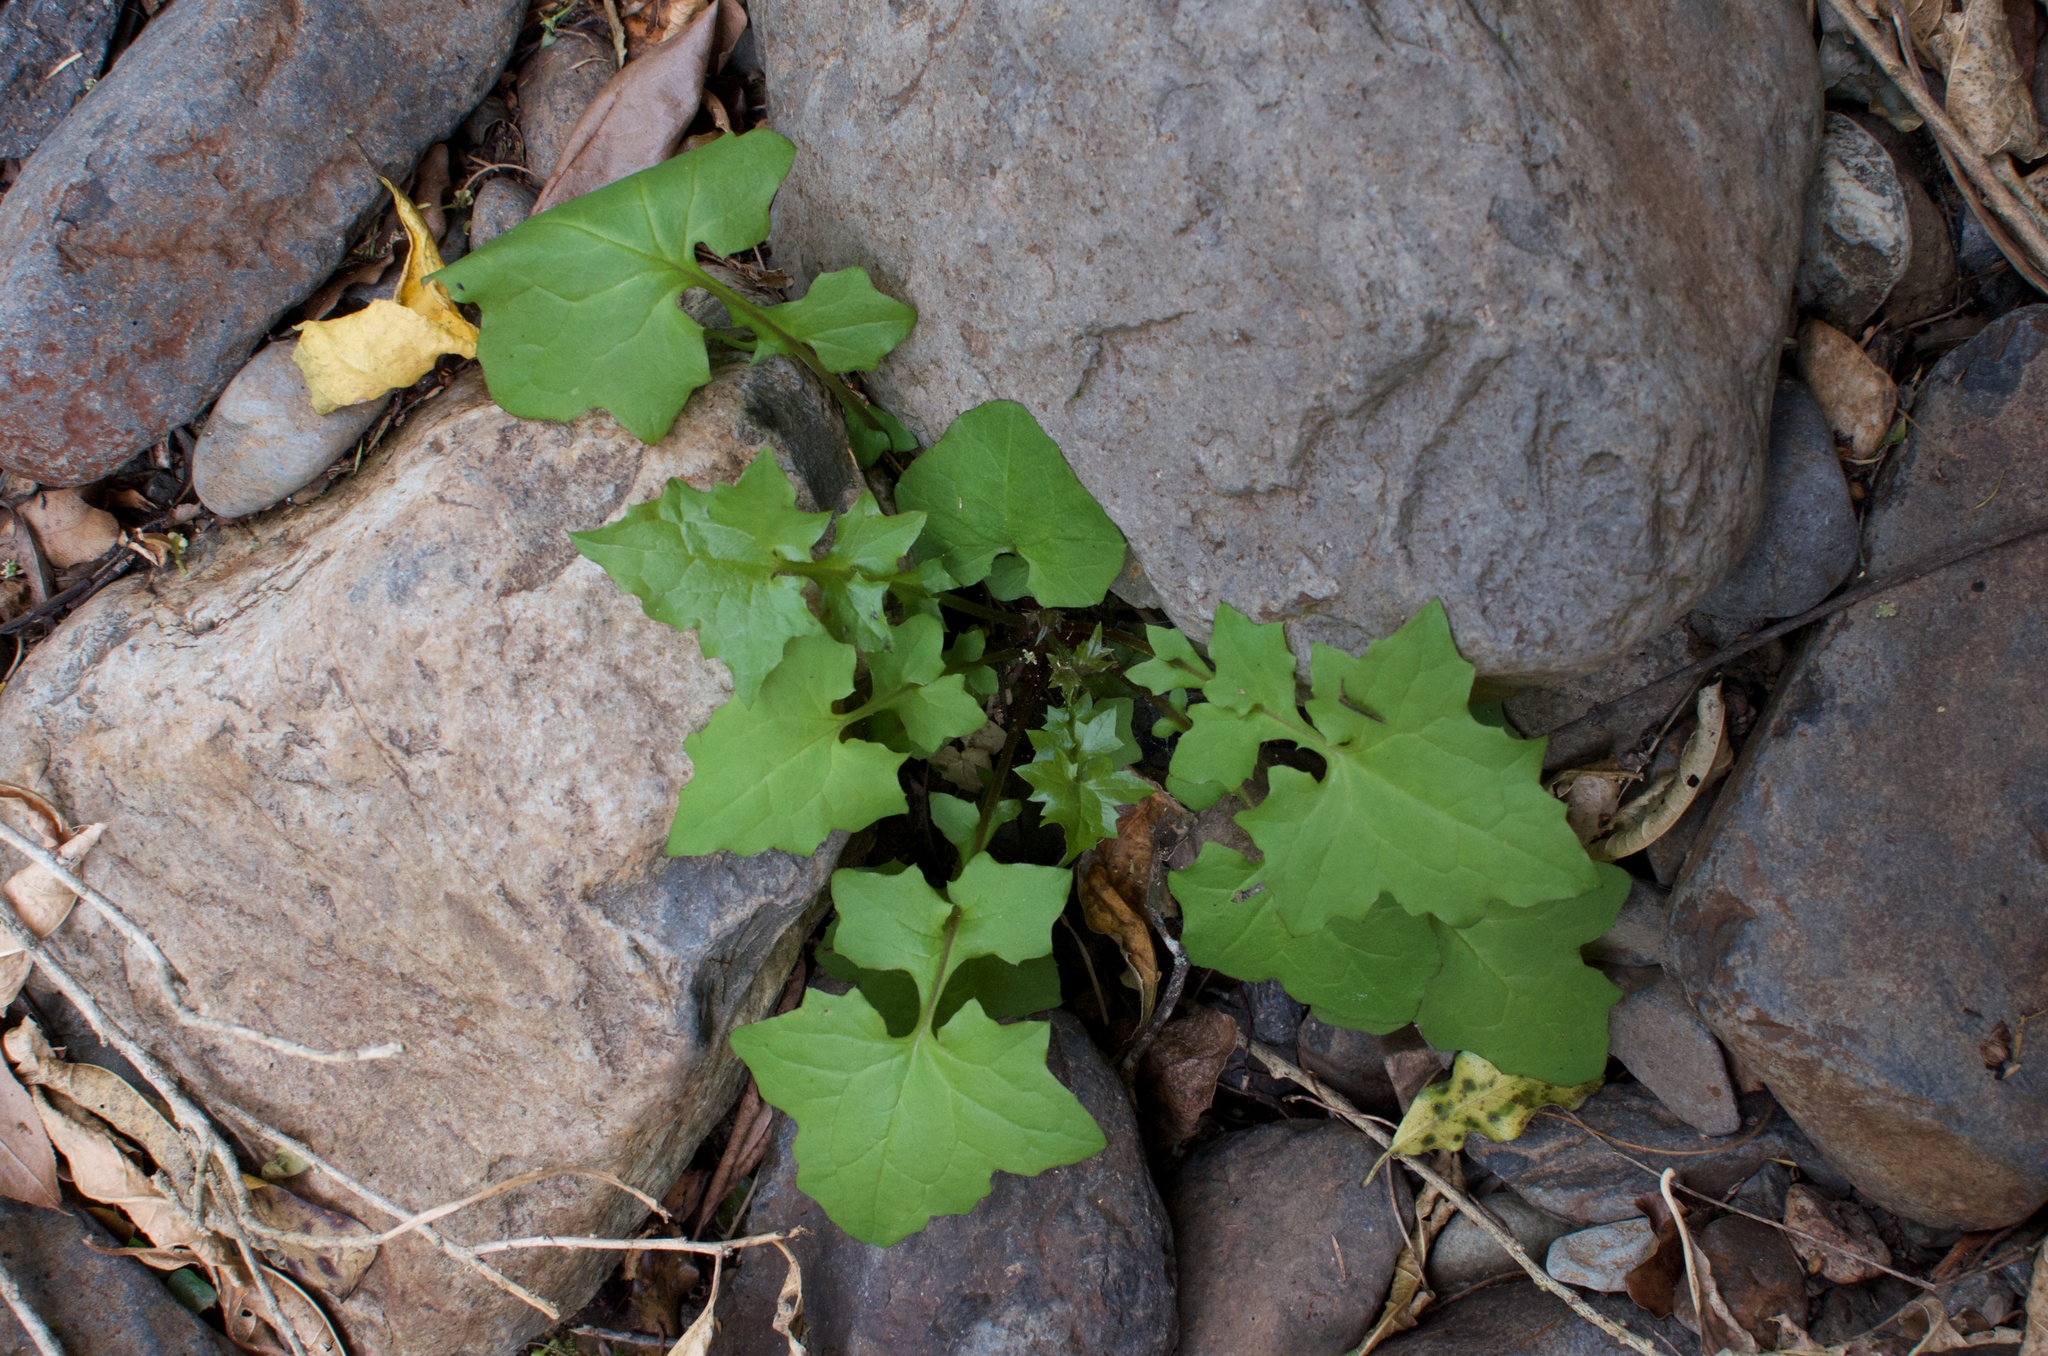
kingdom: Plantae
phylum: Tracheophyta
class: Magnoliopsida
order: Asterales
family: Asteraceae
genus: Mycelis
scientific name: Mycelis muralis
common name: Wall lettuce
